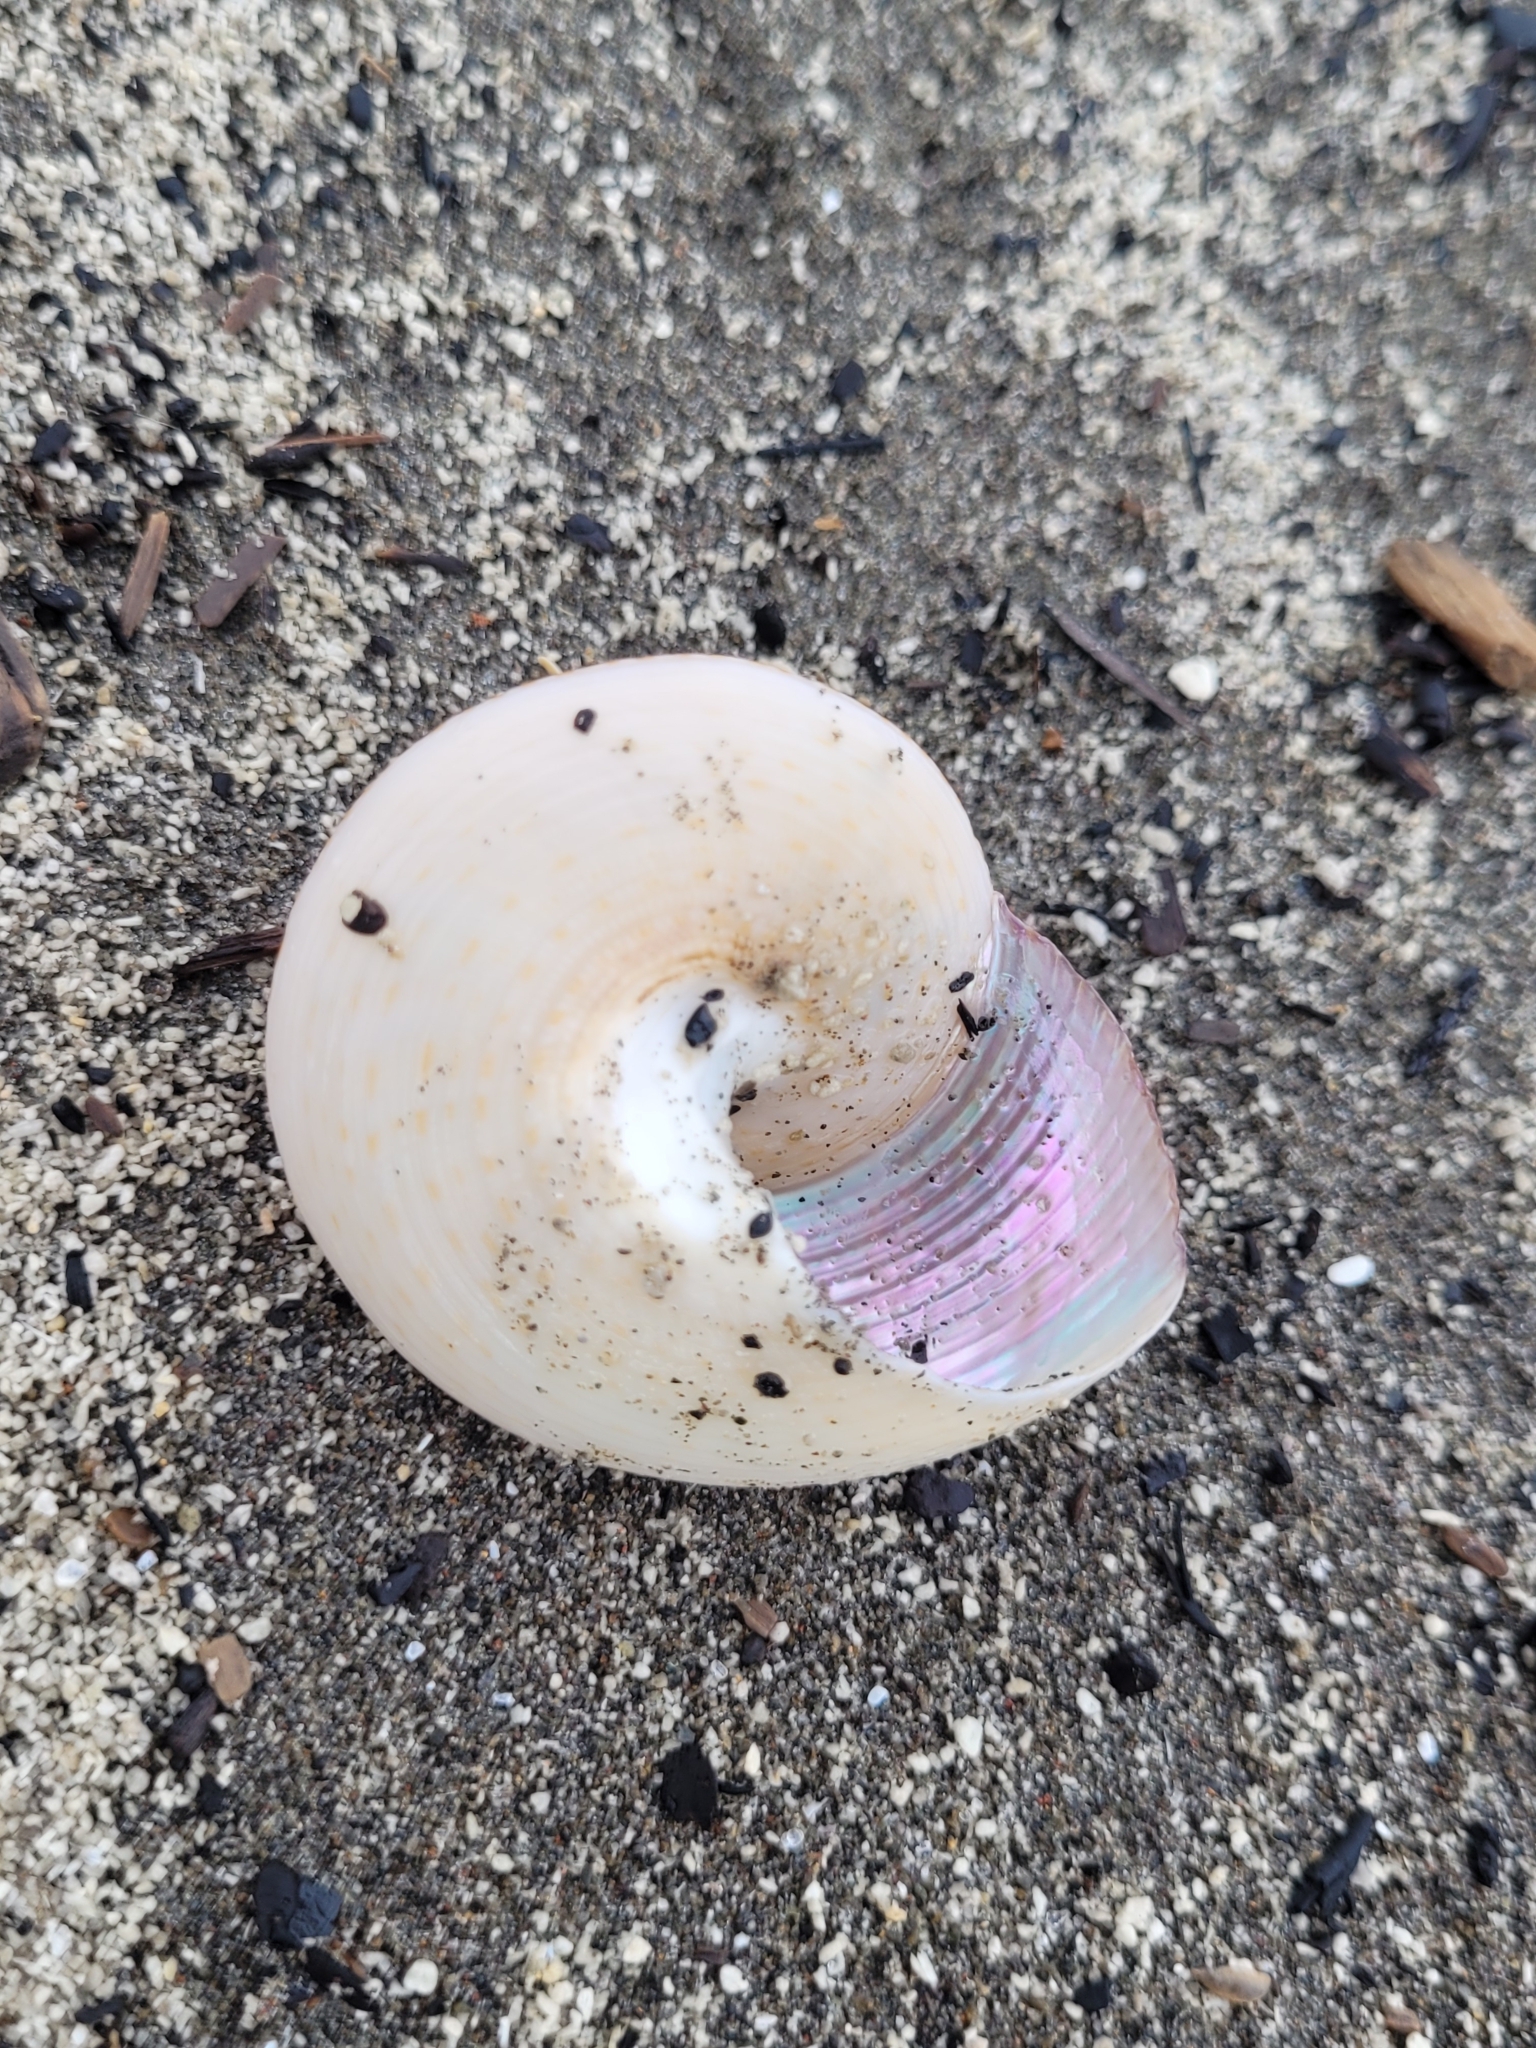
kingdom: Animalia
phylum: Mollusca
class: Gastropoda
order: Trochida
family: Calliostomatidae
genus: Maurea
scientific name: Maurea selecta
